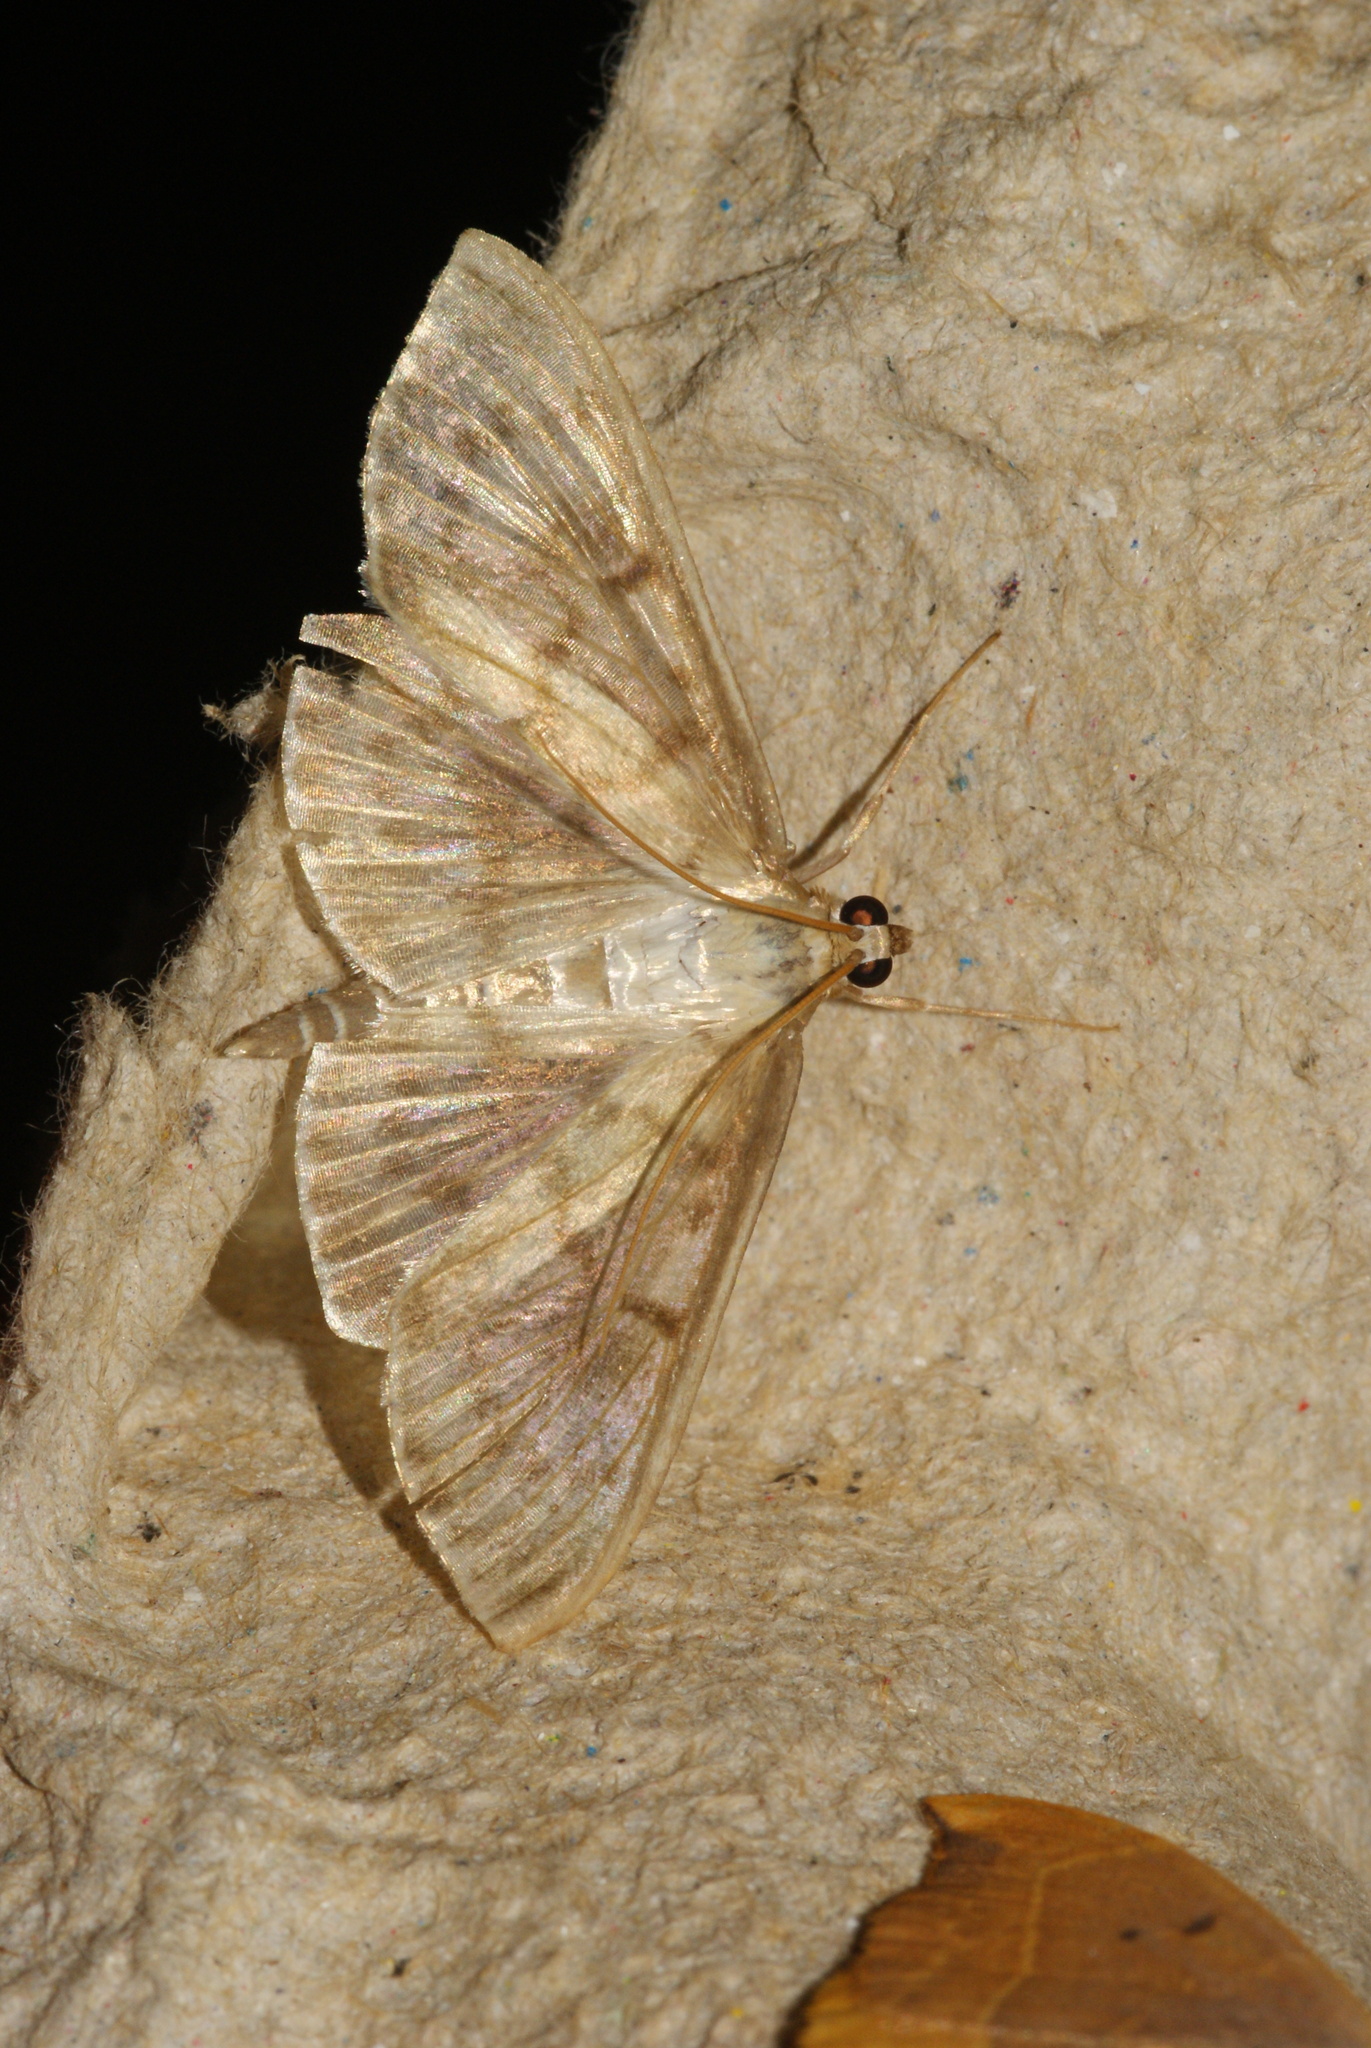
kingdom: Animalia
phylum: Arthropoda
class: Insecta
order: Lepidoptera
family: Crambidae
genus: Patania
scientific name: Patania ruralis
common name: Mother of pearl
